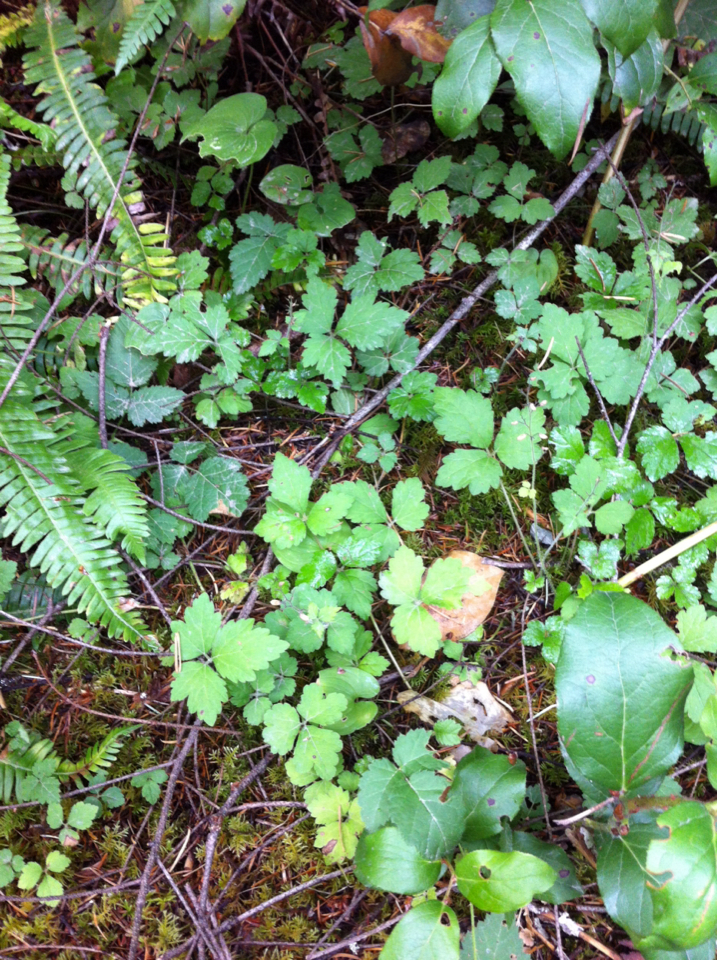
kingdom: Plantae
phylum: Tracheophyta
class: Magnoliopsida
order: Saxifragales
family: Saxifragaceae
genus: Tiarella
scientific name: Tiarella trifoliata
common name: Sugar-scoop
